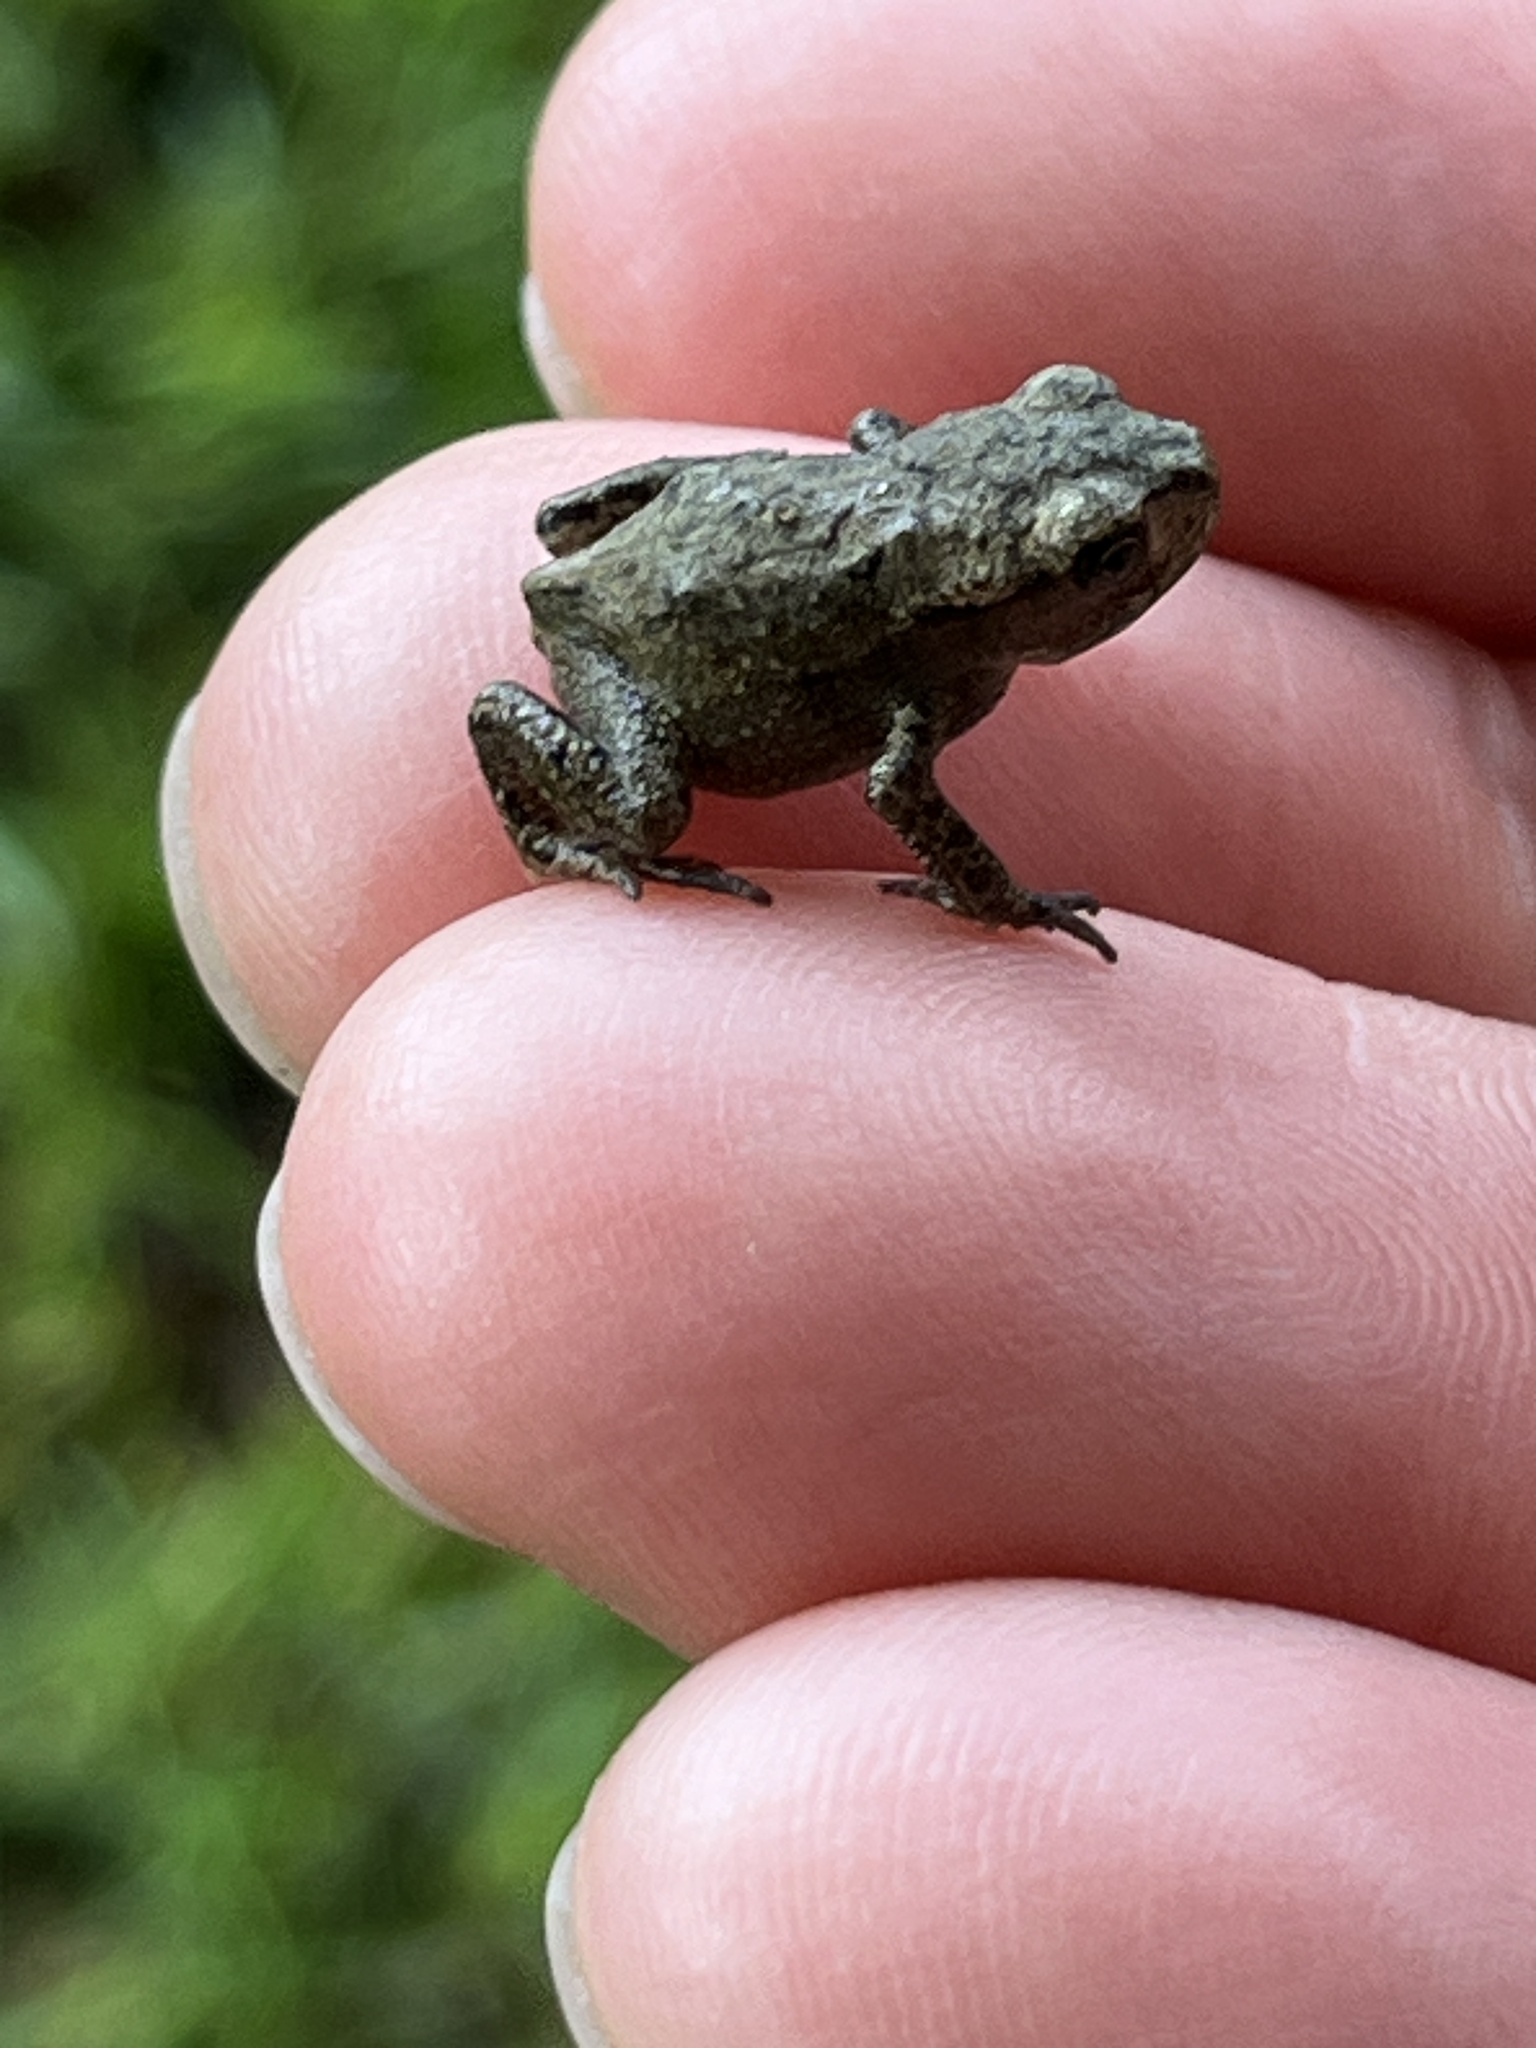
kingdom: Animalia
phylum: Chordata
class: Amphibia
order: Anura
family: Bufonidae
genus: Bufo
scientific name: Bufo bufo
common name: Common toad
